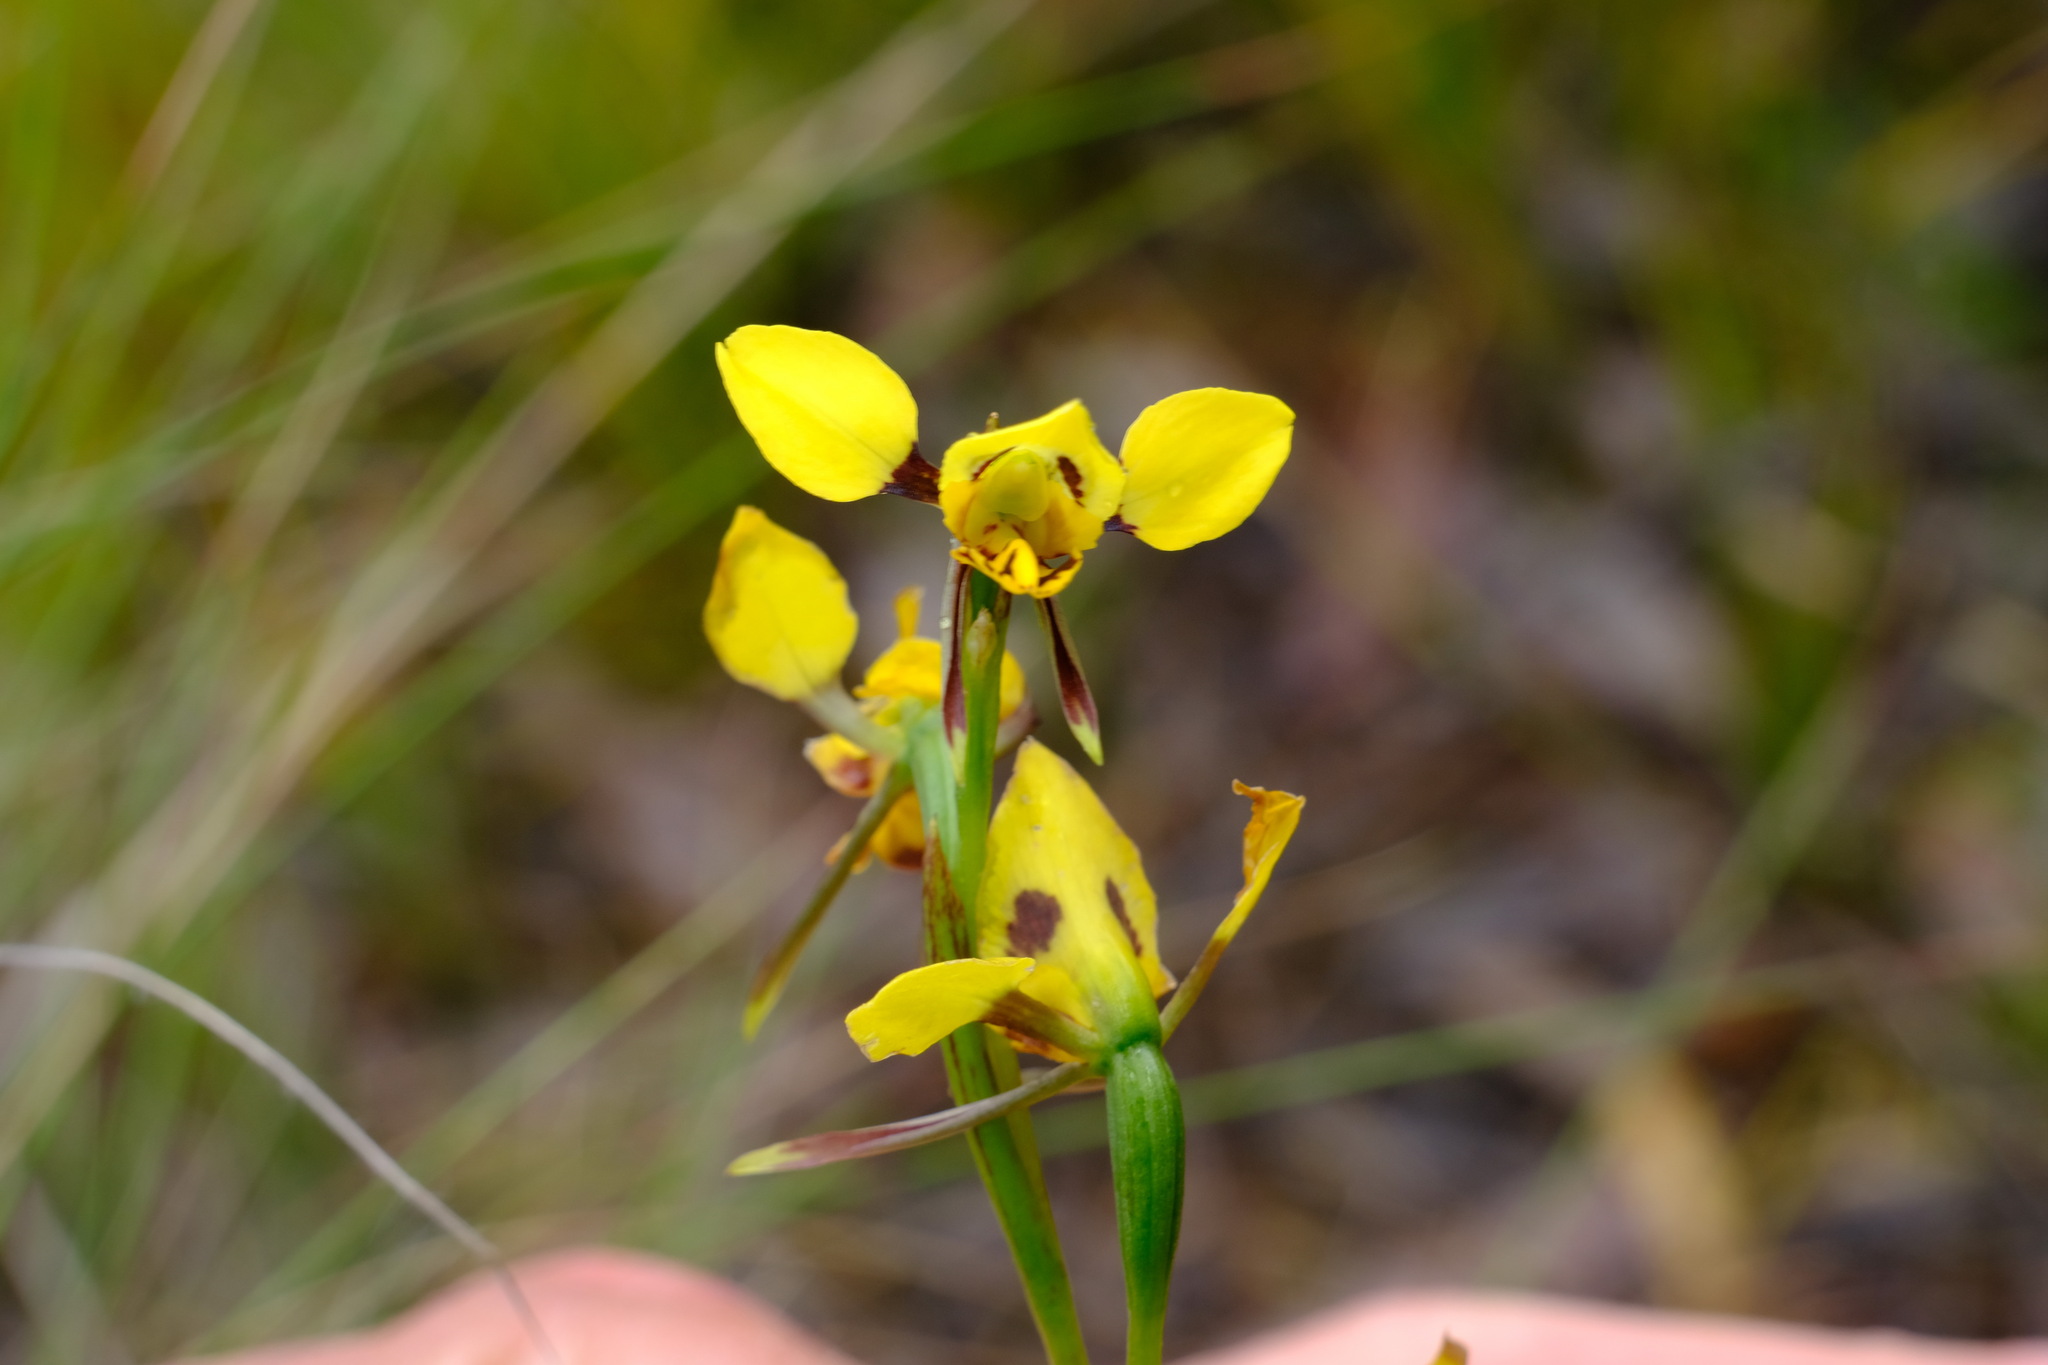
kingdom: Plantae
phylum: Tracheophyta
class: Liliopsida
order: Asparagales
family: Orchidaceae
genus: Diuris
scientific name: Diuris sulphurea
